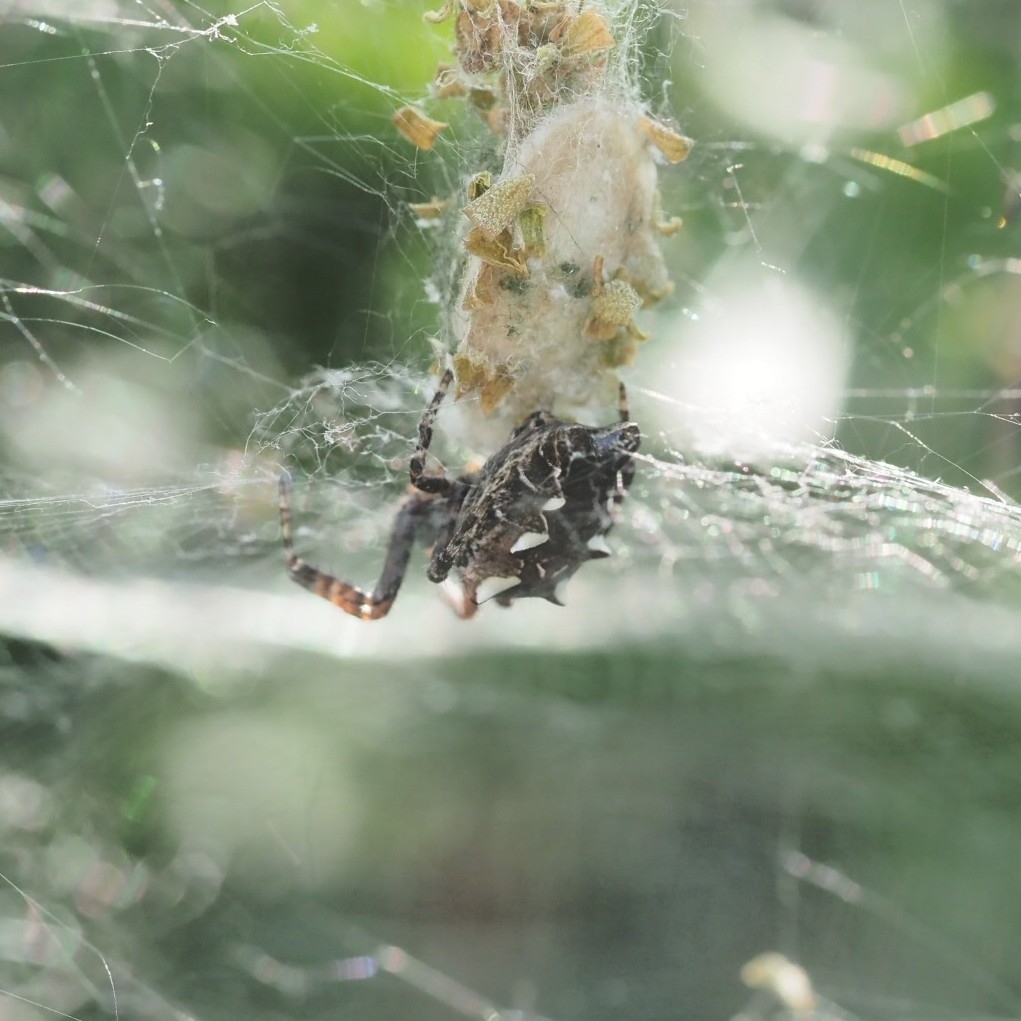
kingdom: Animalia
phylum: Arthropoda
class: Arachnida
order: Araneae
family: Araneidae
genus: Cyrtophora
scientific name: Cyrtophora citricola
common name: Orb weavers
